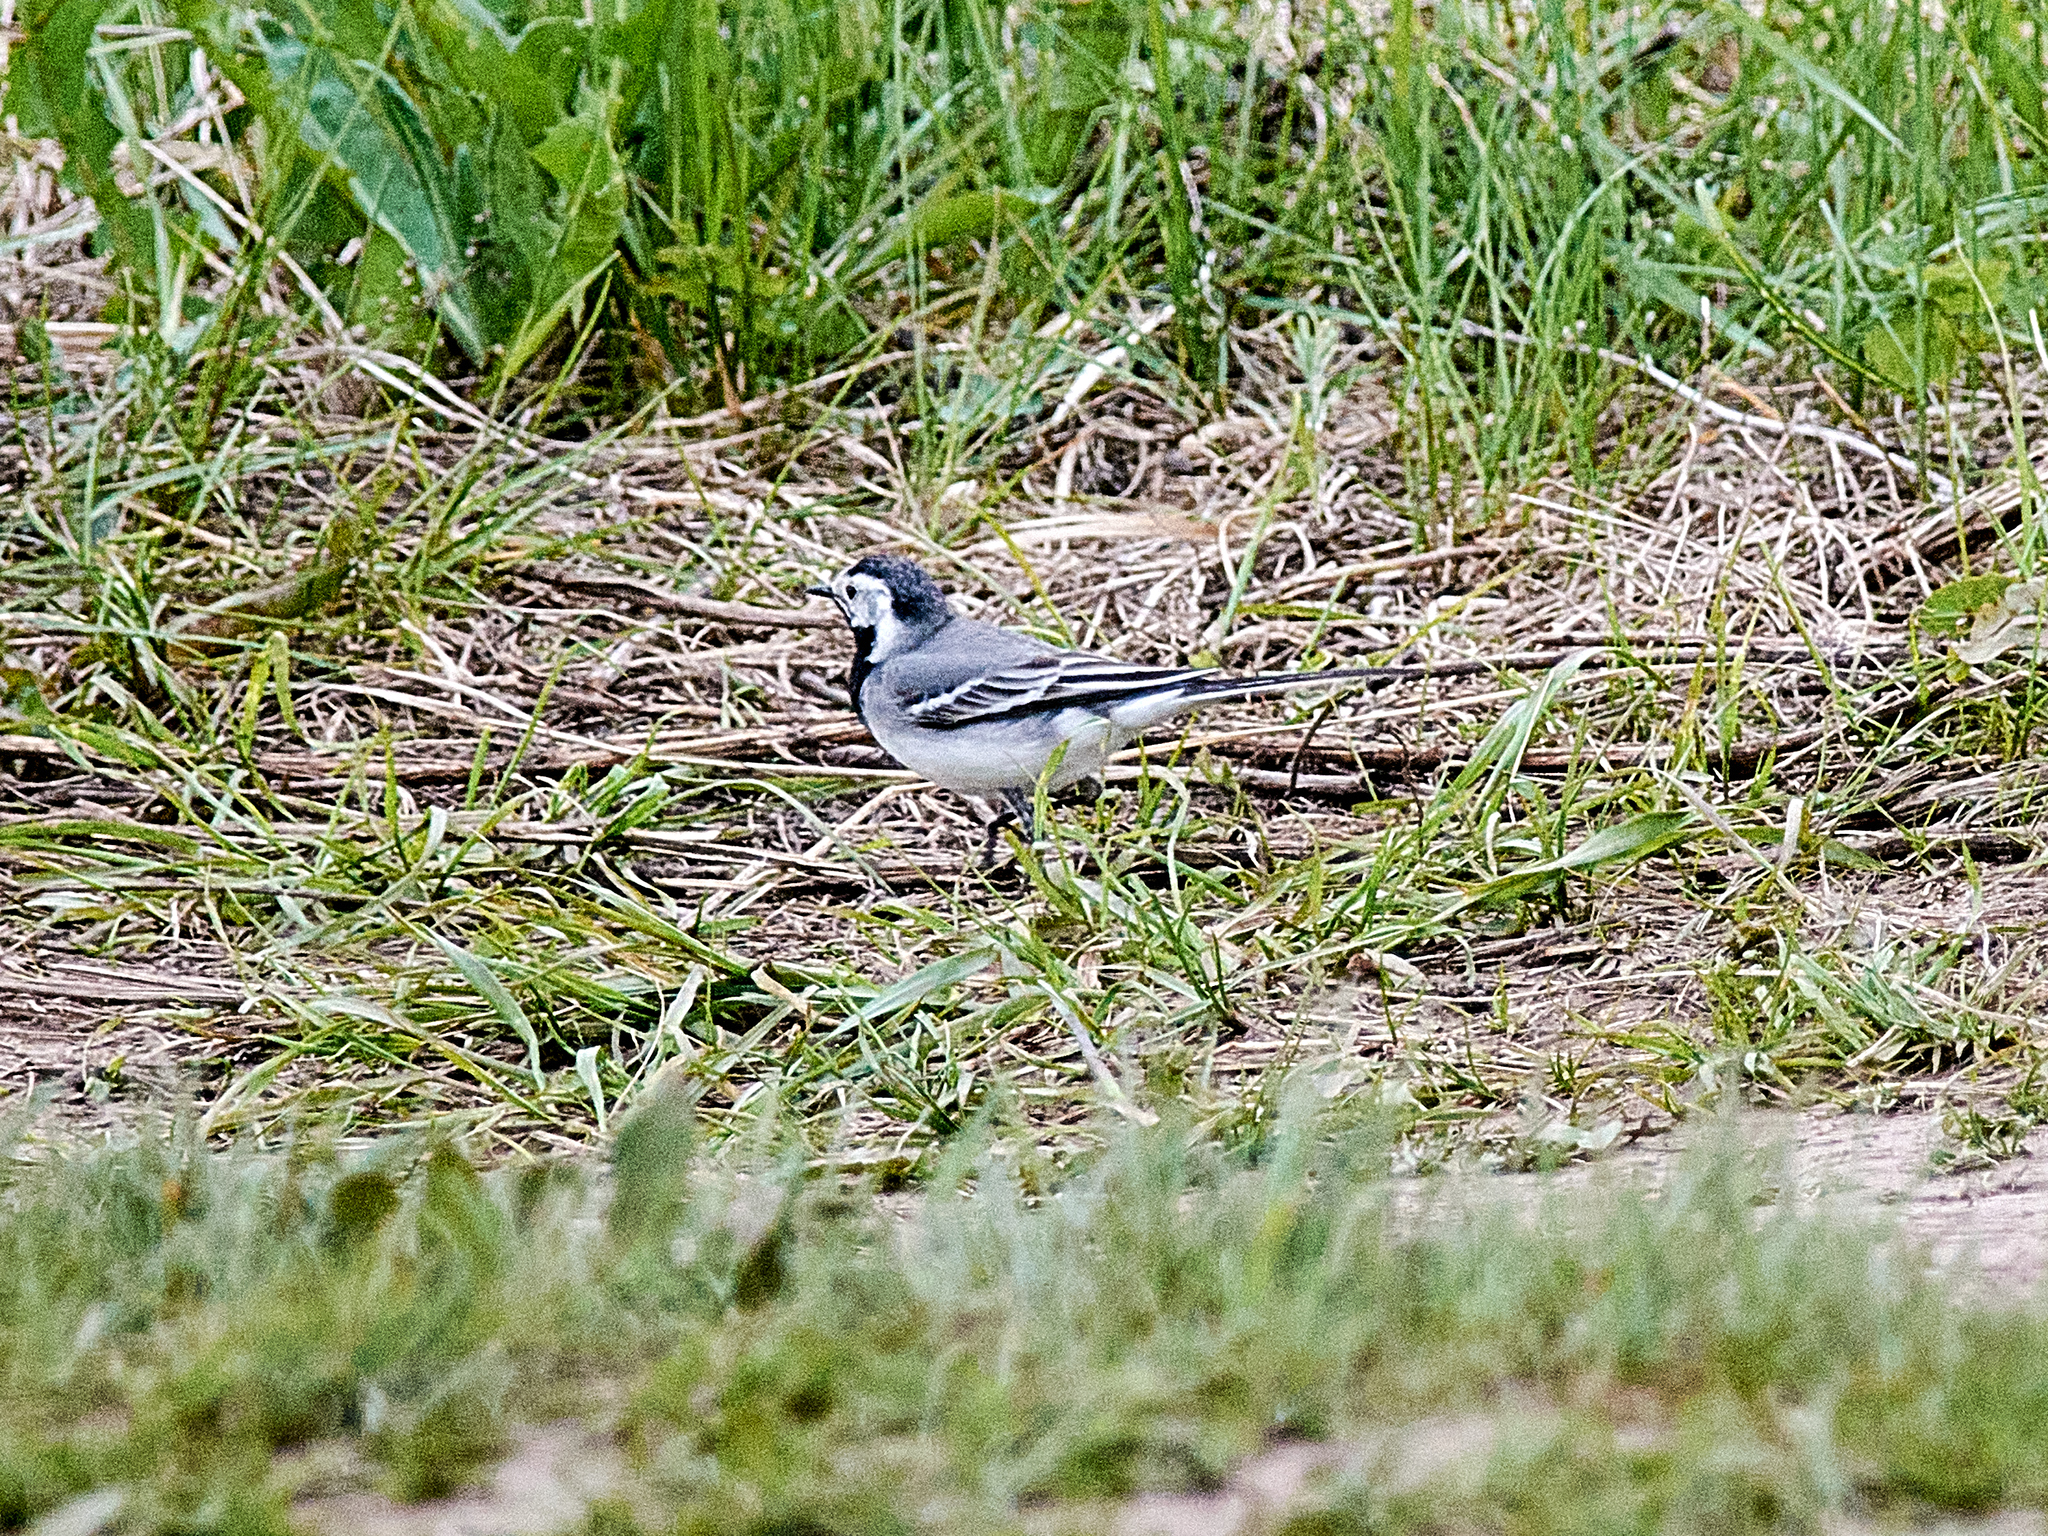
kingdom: Animalia
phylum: Chordata
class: Aves
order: Passeriformes
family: Motacillidae
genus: Motacilla
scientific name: Motacilla alba
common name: White wagtail
